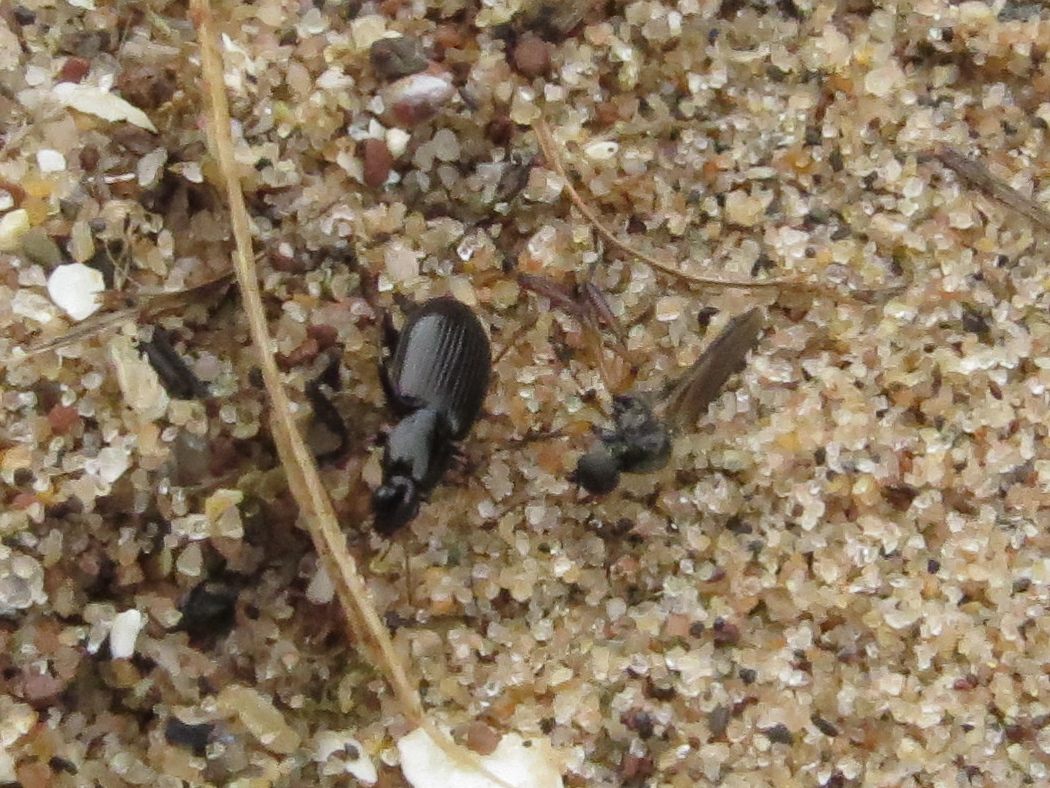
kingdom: Animalia
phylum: Arthropoda
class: Insecta
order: Diptera
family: Bibionidae
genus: Bibio
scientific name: Bibio articulatus
